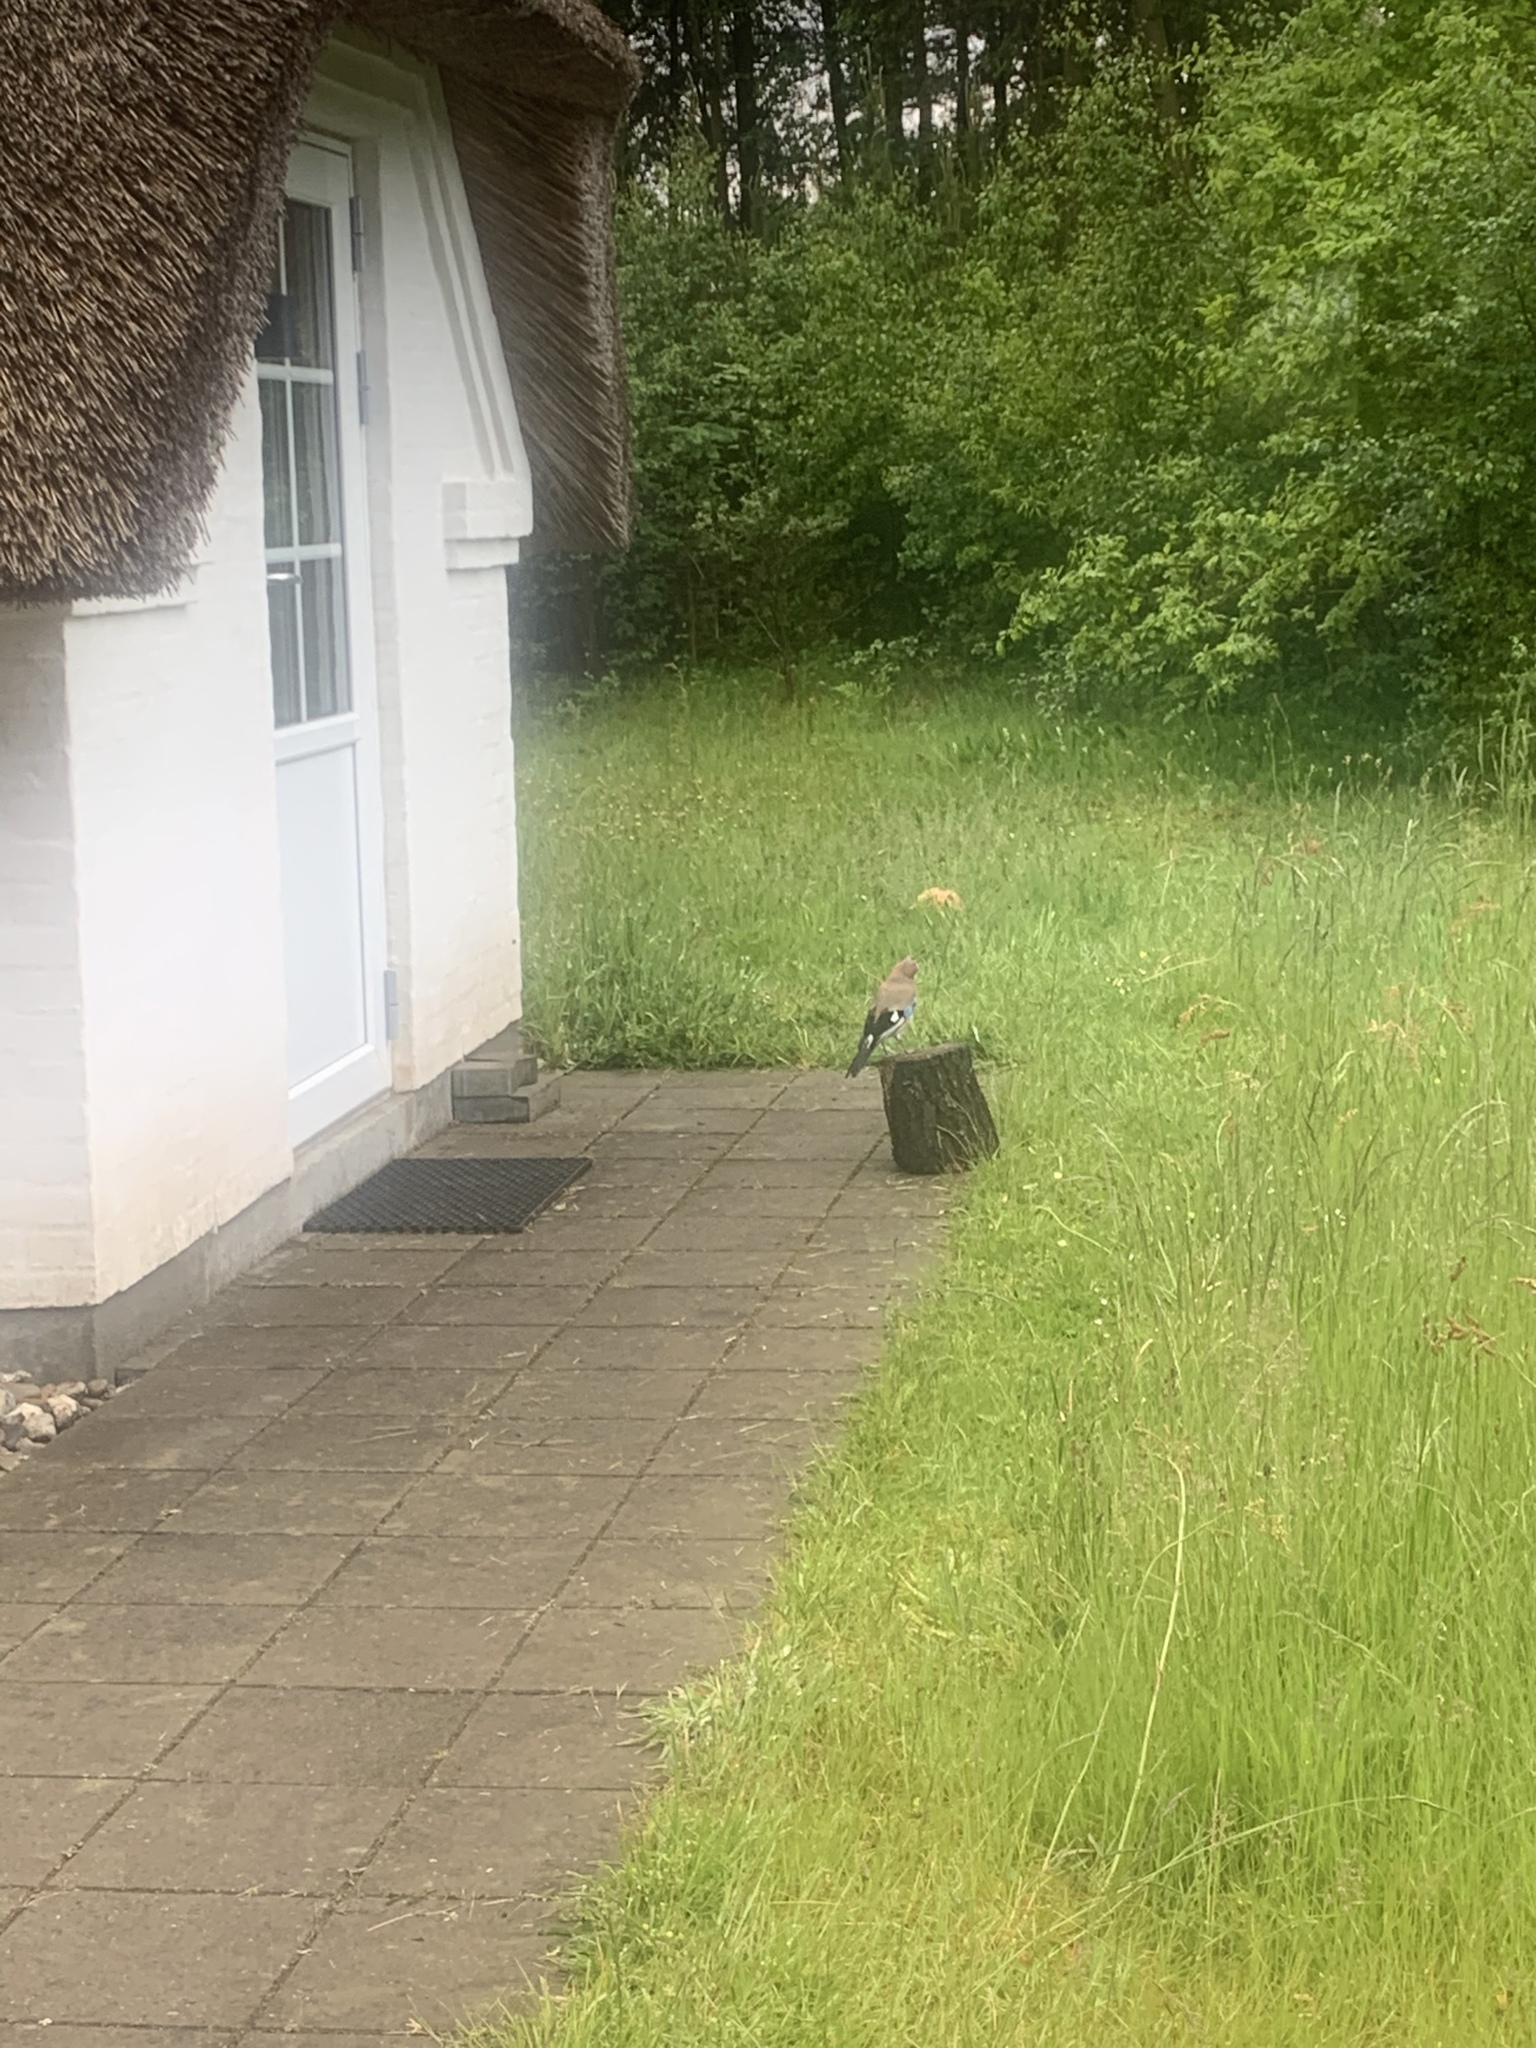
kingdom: Animalia
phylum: Chordata
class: Aves
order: Passeriformes
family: Corvidae
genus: Garrulus
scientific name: Garrulus glandarius
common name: Eurasian jay
